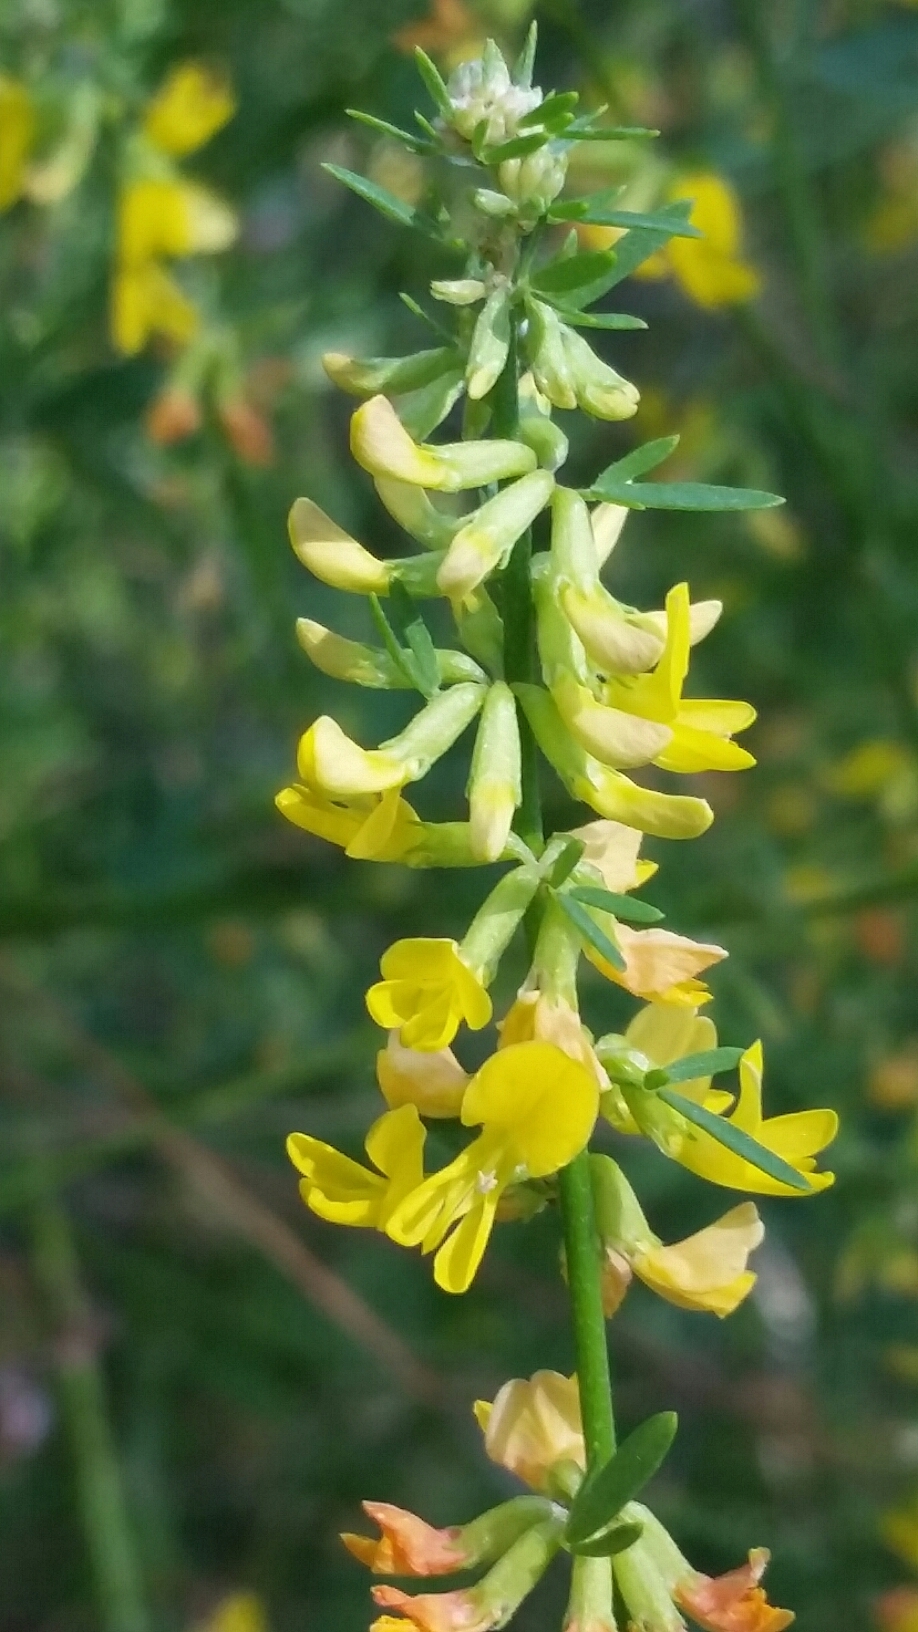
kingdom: Plantae
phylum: Tracheophyta
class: Magnoliopsida
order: Fabales
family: Fabaceae
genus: Acmispon
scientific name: Acmispon glaber
